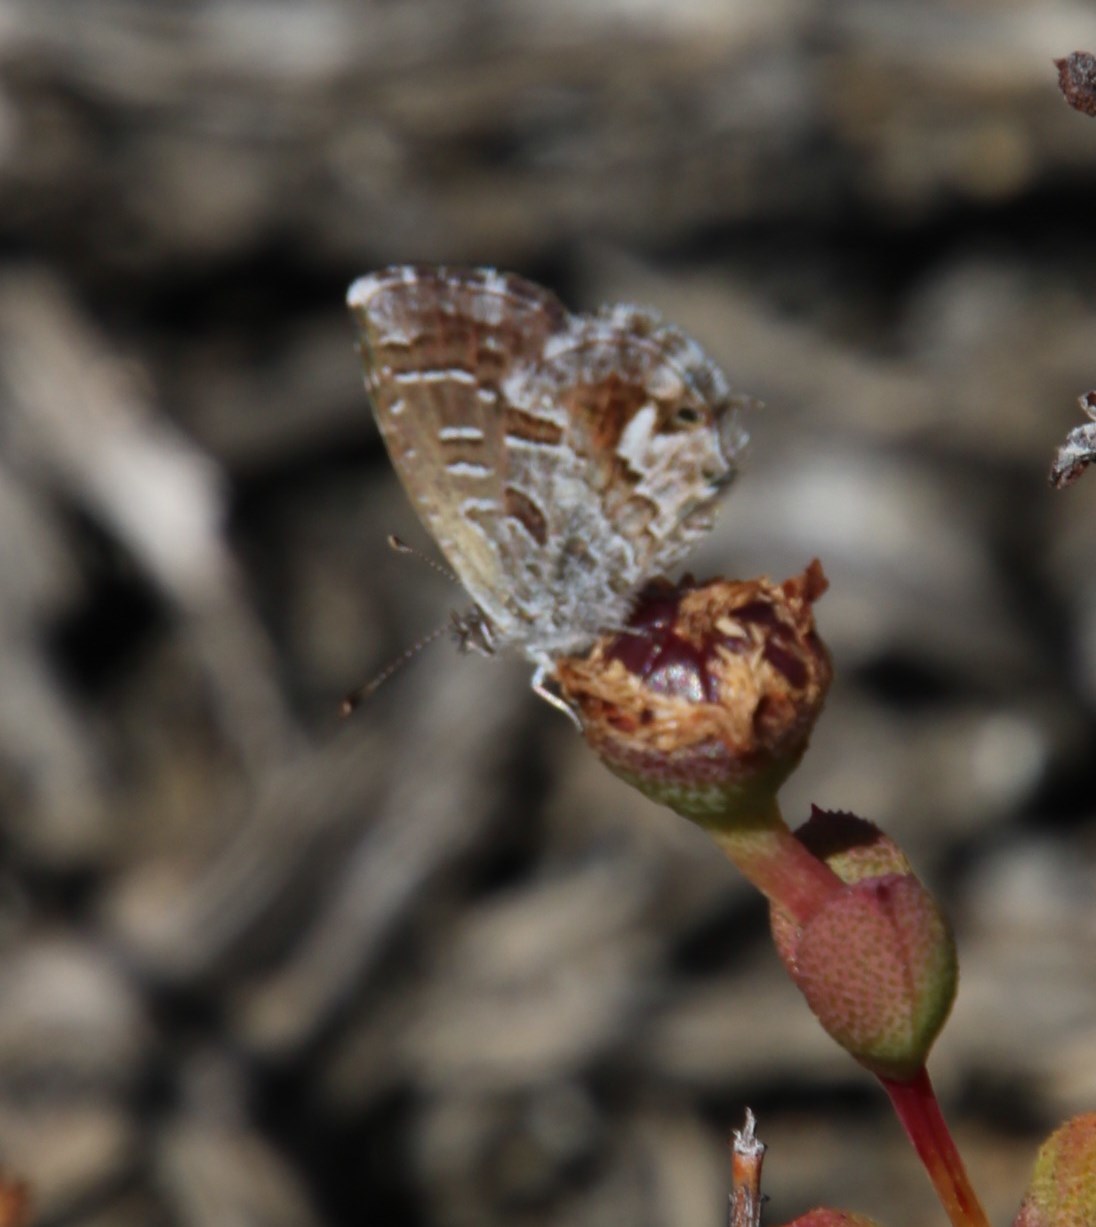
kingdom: Animalia
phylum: Arthropoda
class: Insecta
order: Lepidoptera
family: Lycaenidae
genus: Cacyreus
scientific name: Cacyreus dicksoni
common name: Dickson's geranium bronze
